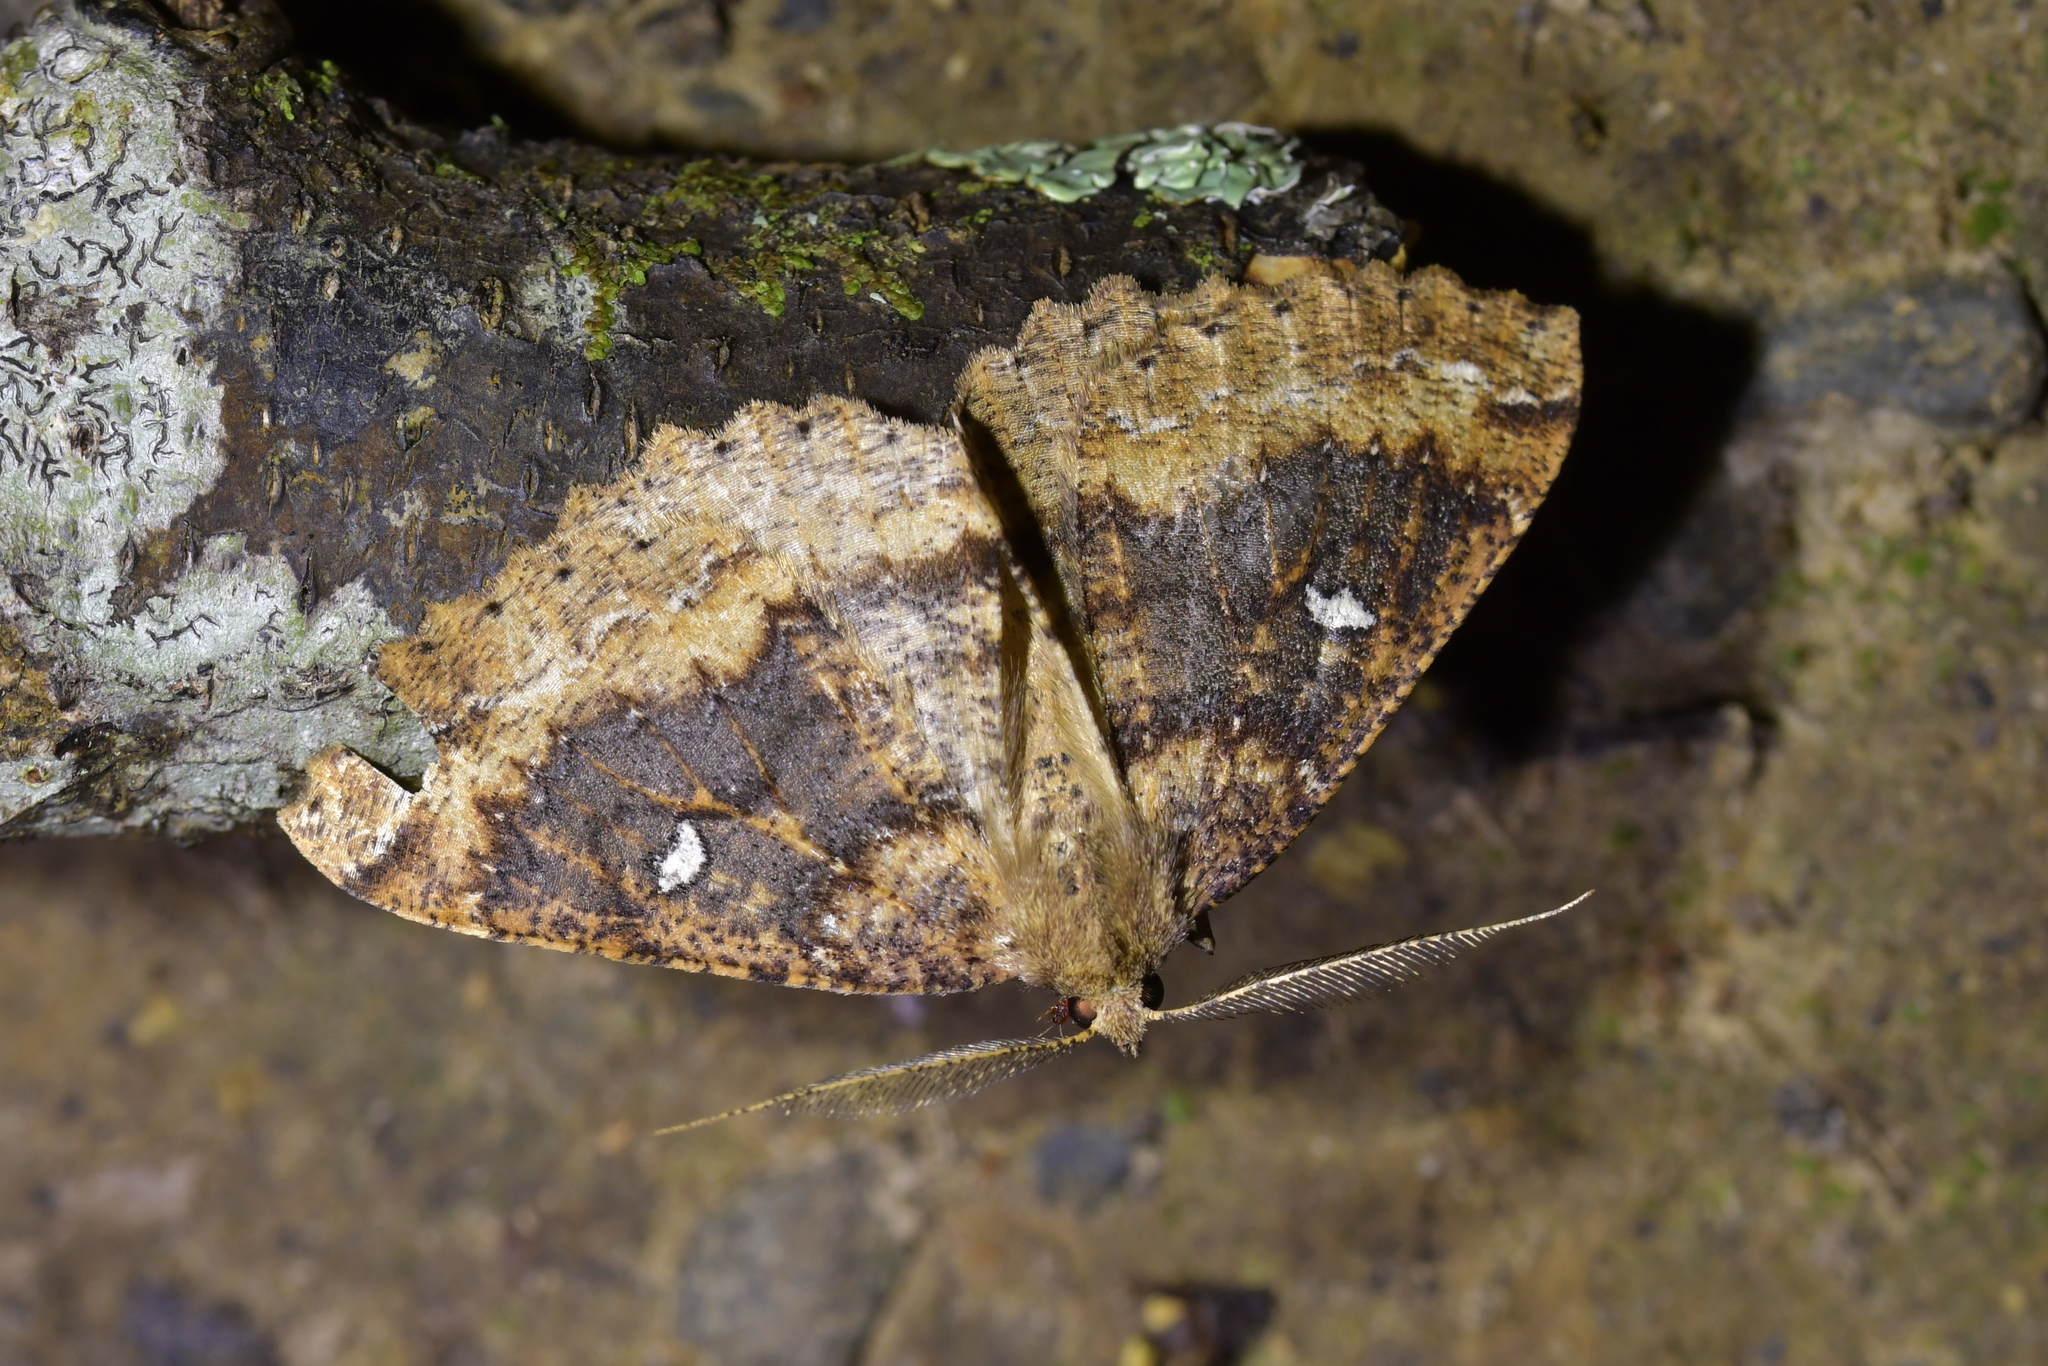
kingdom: Animalia
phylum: Arthropoda
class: Insecta
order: Lepidoptera
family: Geometridae
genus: Cleora
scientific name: Cleora scriptaria
